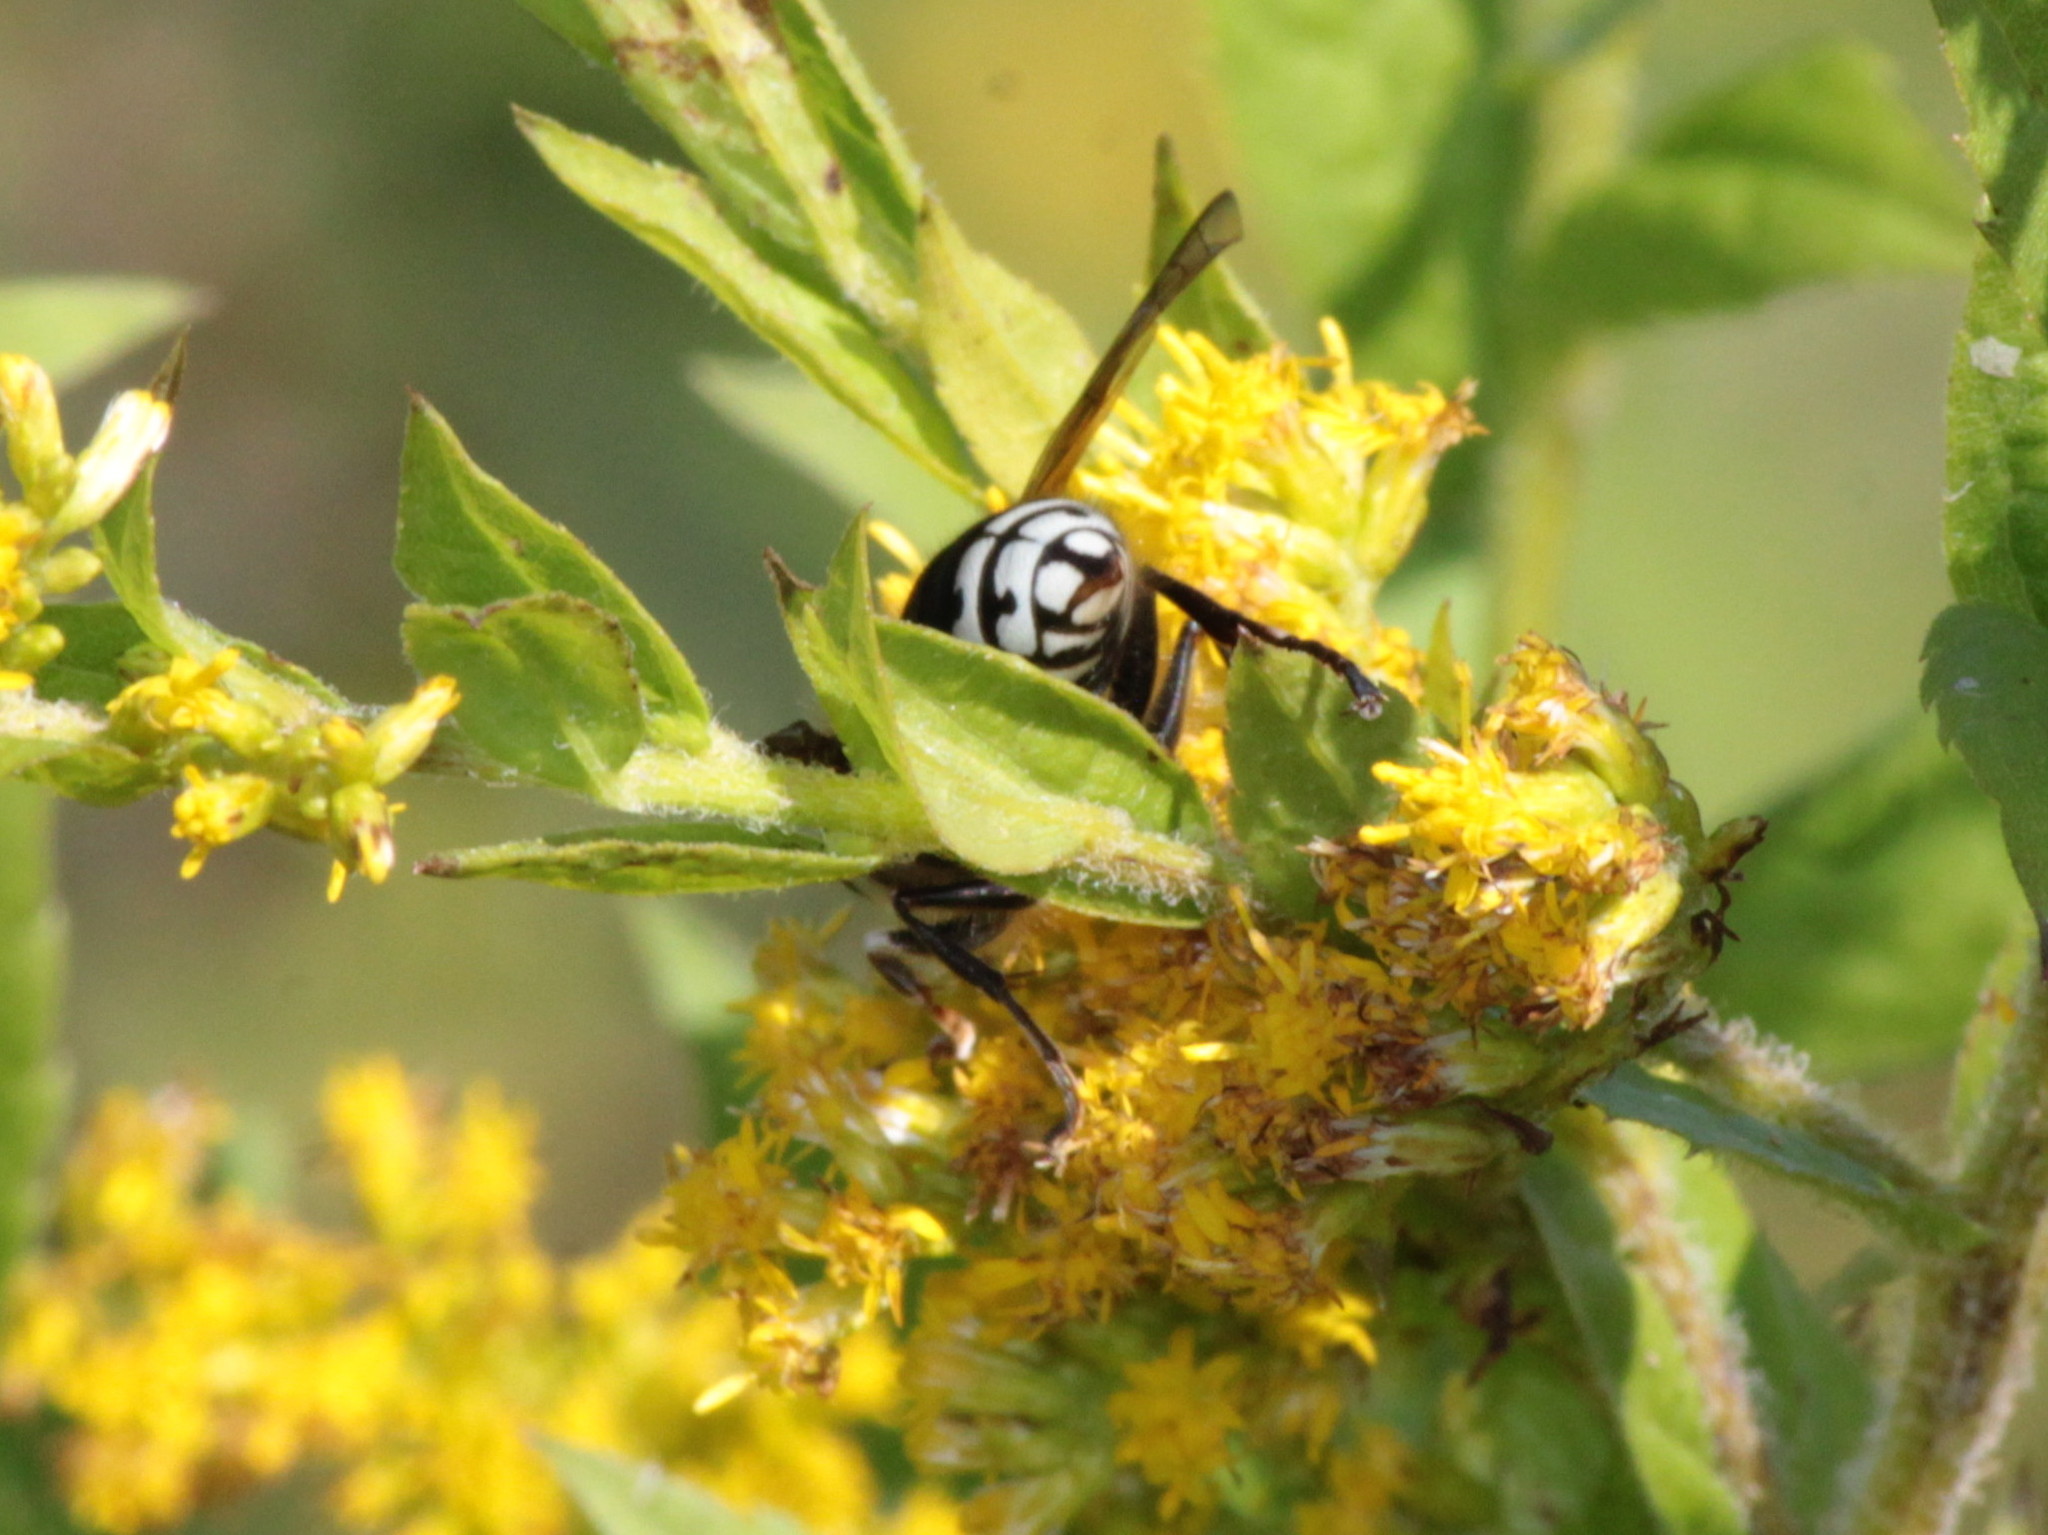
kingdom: Animalia
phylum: Arthropoda
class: Insecta
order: Hymenoptera
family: Vespidae
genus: Dolichovespula
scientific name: Dolichovespula maculata
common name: Bald-faced hornet
